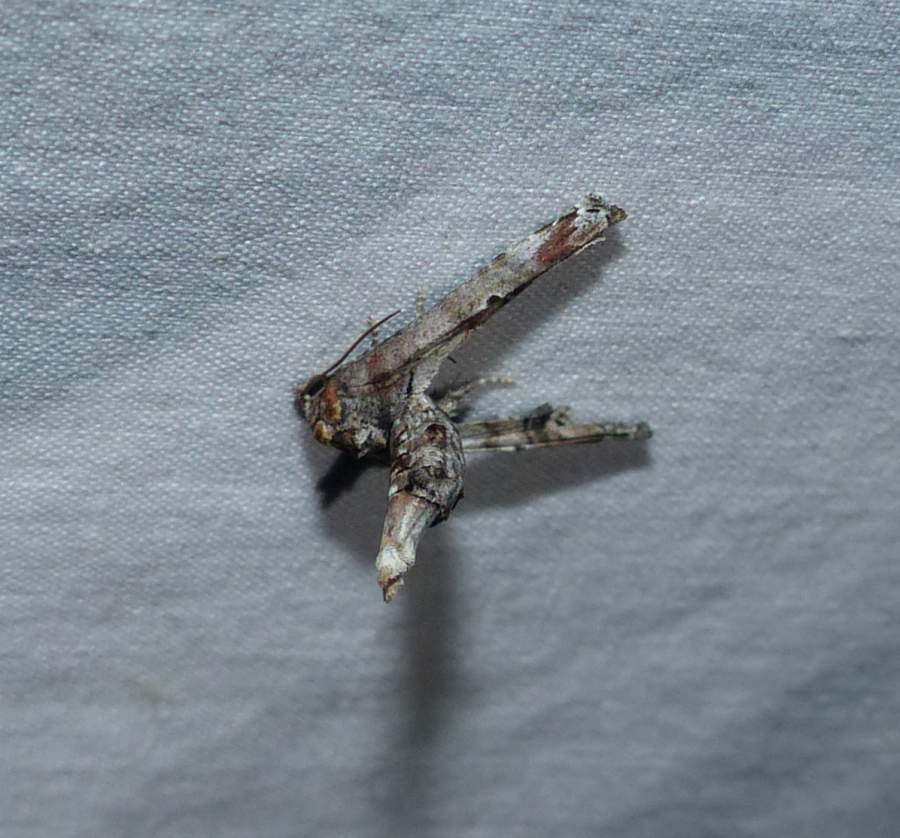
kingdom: Animalia
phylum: Arthropoda
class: Insecta
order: Lepidoptera
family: Euteliidae
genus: Marathyssa
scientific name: Marathyssa inficita
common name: Dark marathyssa moth
